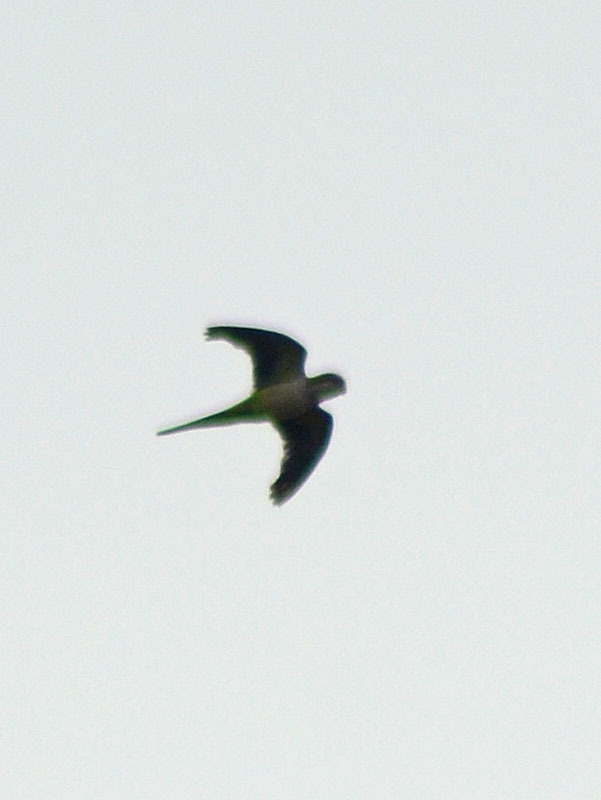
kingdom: Animalia
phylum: Chordata
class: Aves
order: Psittaciformes
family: Psittacidae
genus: Myiopsitta
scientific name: Myiopsitta monachus
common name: Monk parakeet
